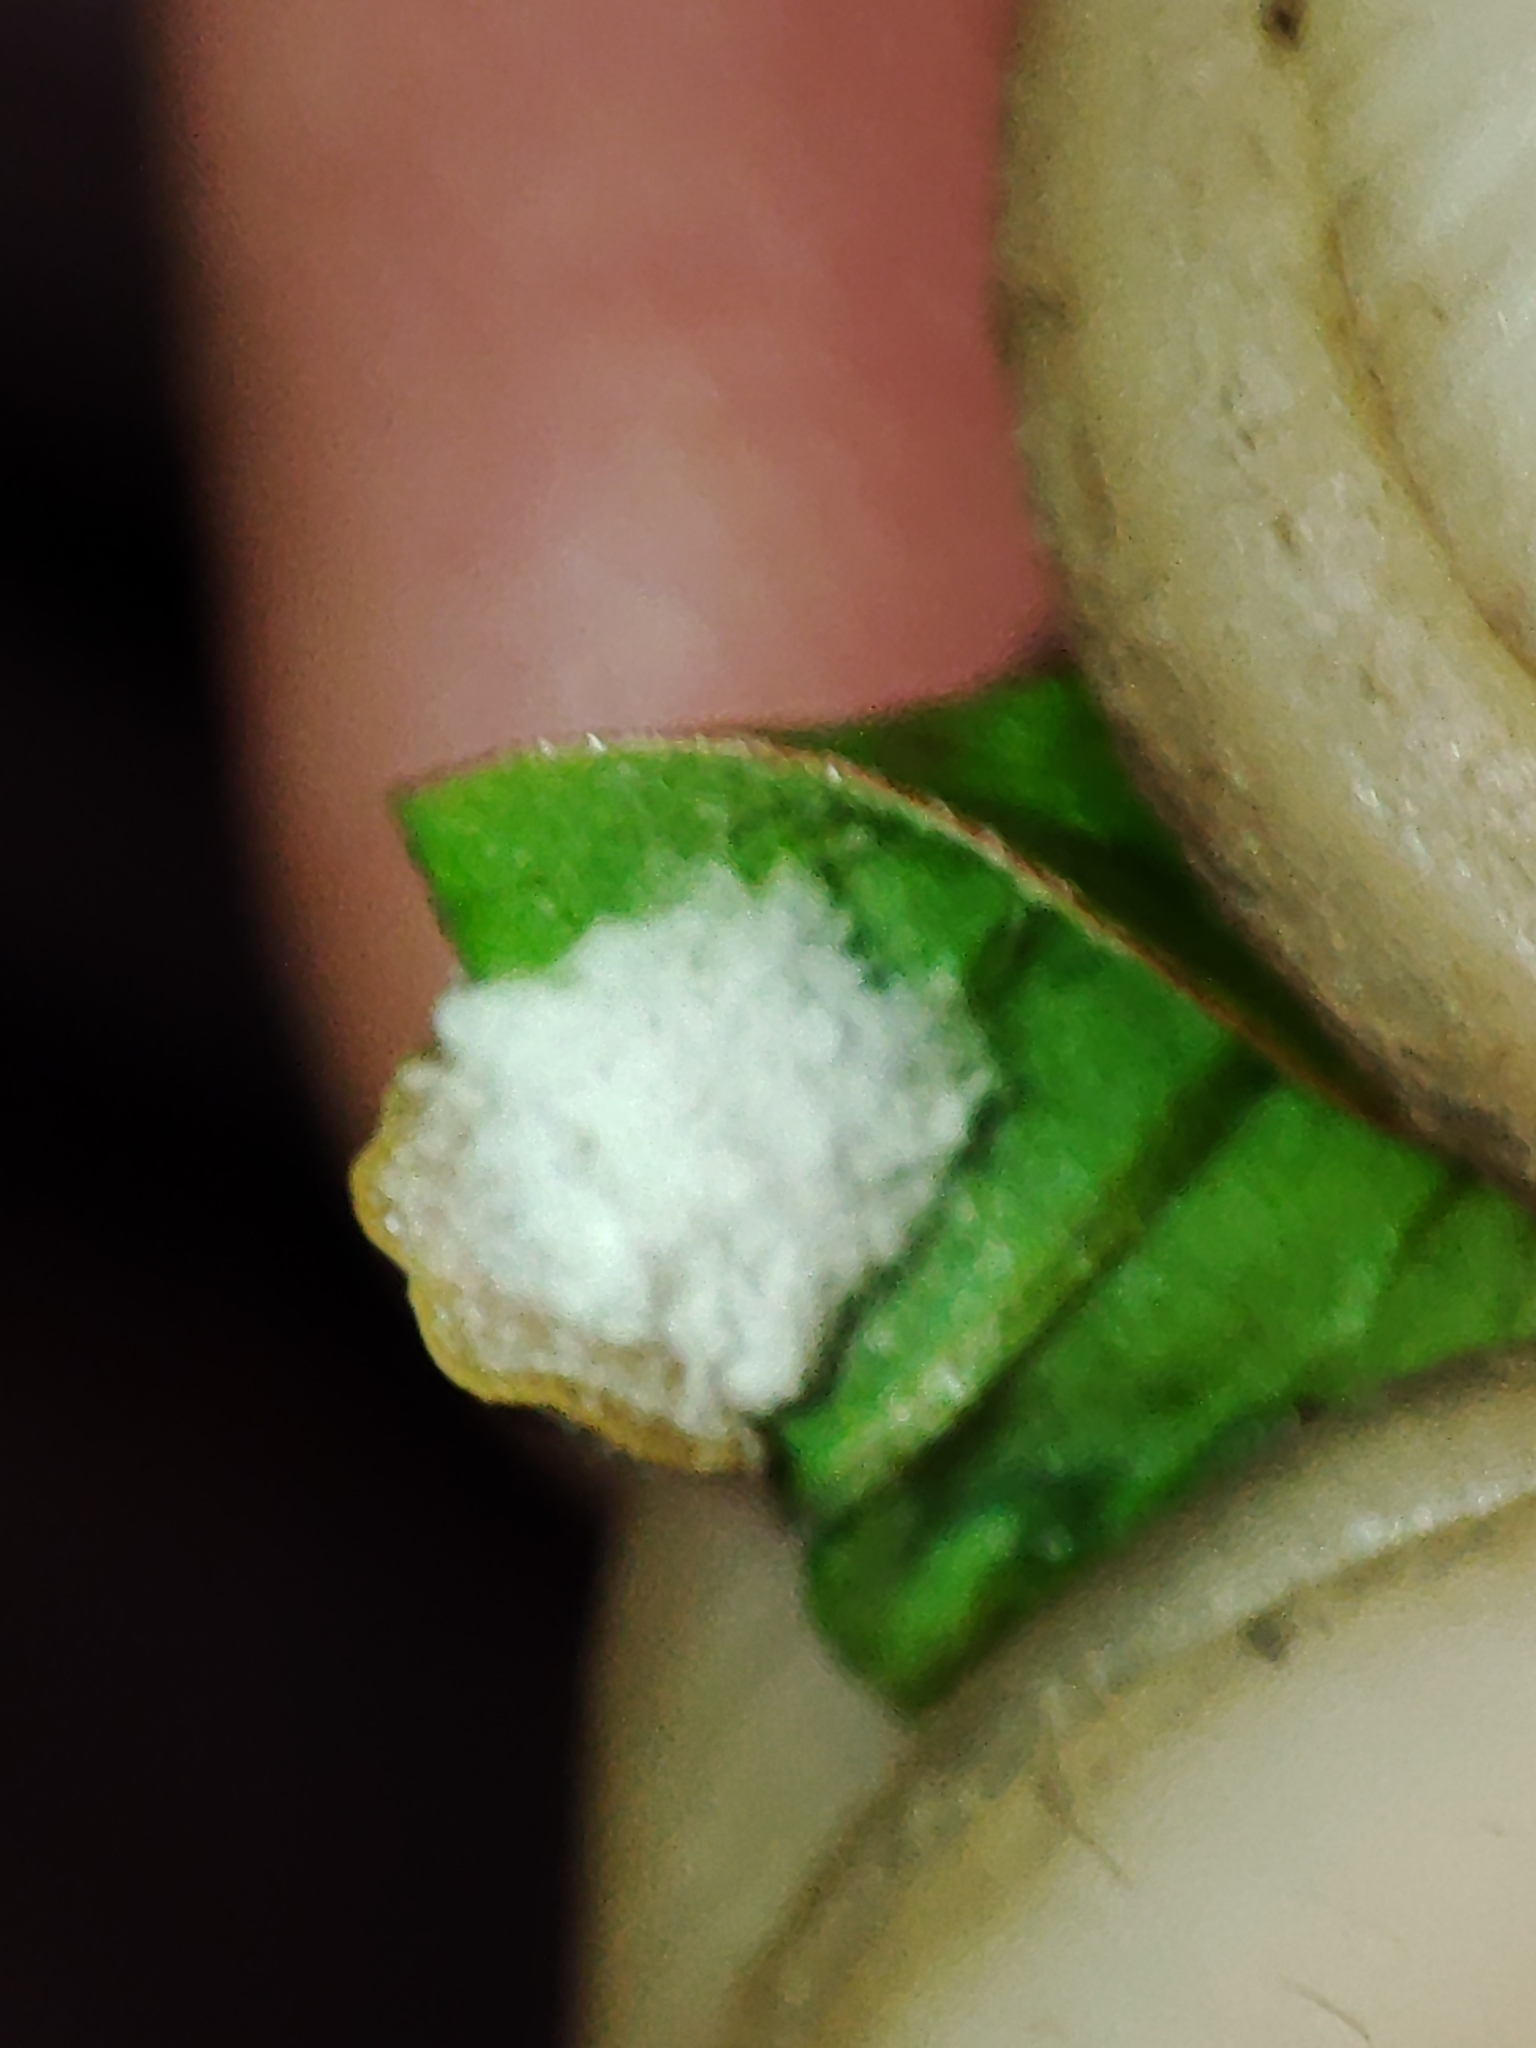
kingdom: Animalia
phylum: Arthropoda
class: Insecta
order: Hemiptera
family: Coccidae
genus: Pulvinaria
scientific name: Pulvinaria hydrangeae
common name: Cottony hydrangea scale
